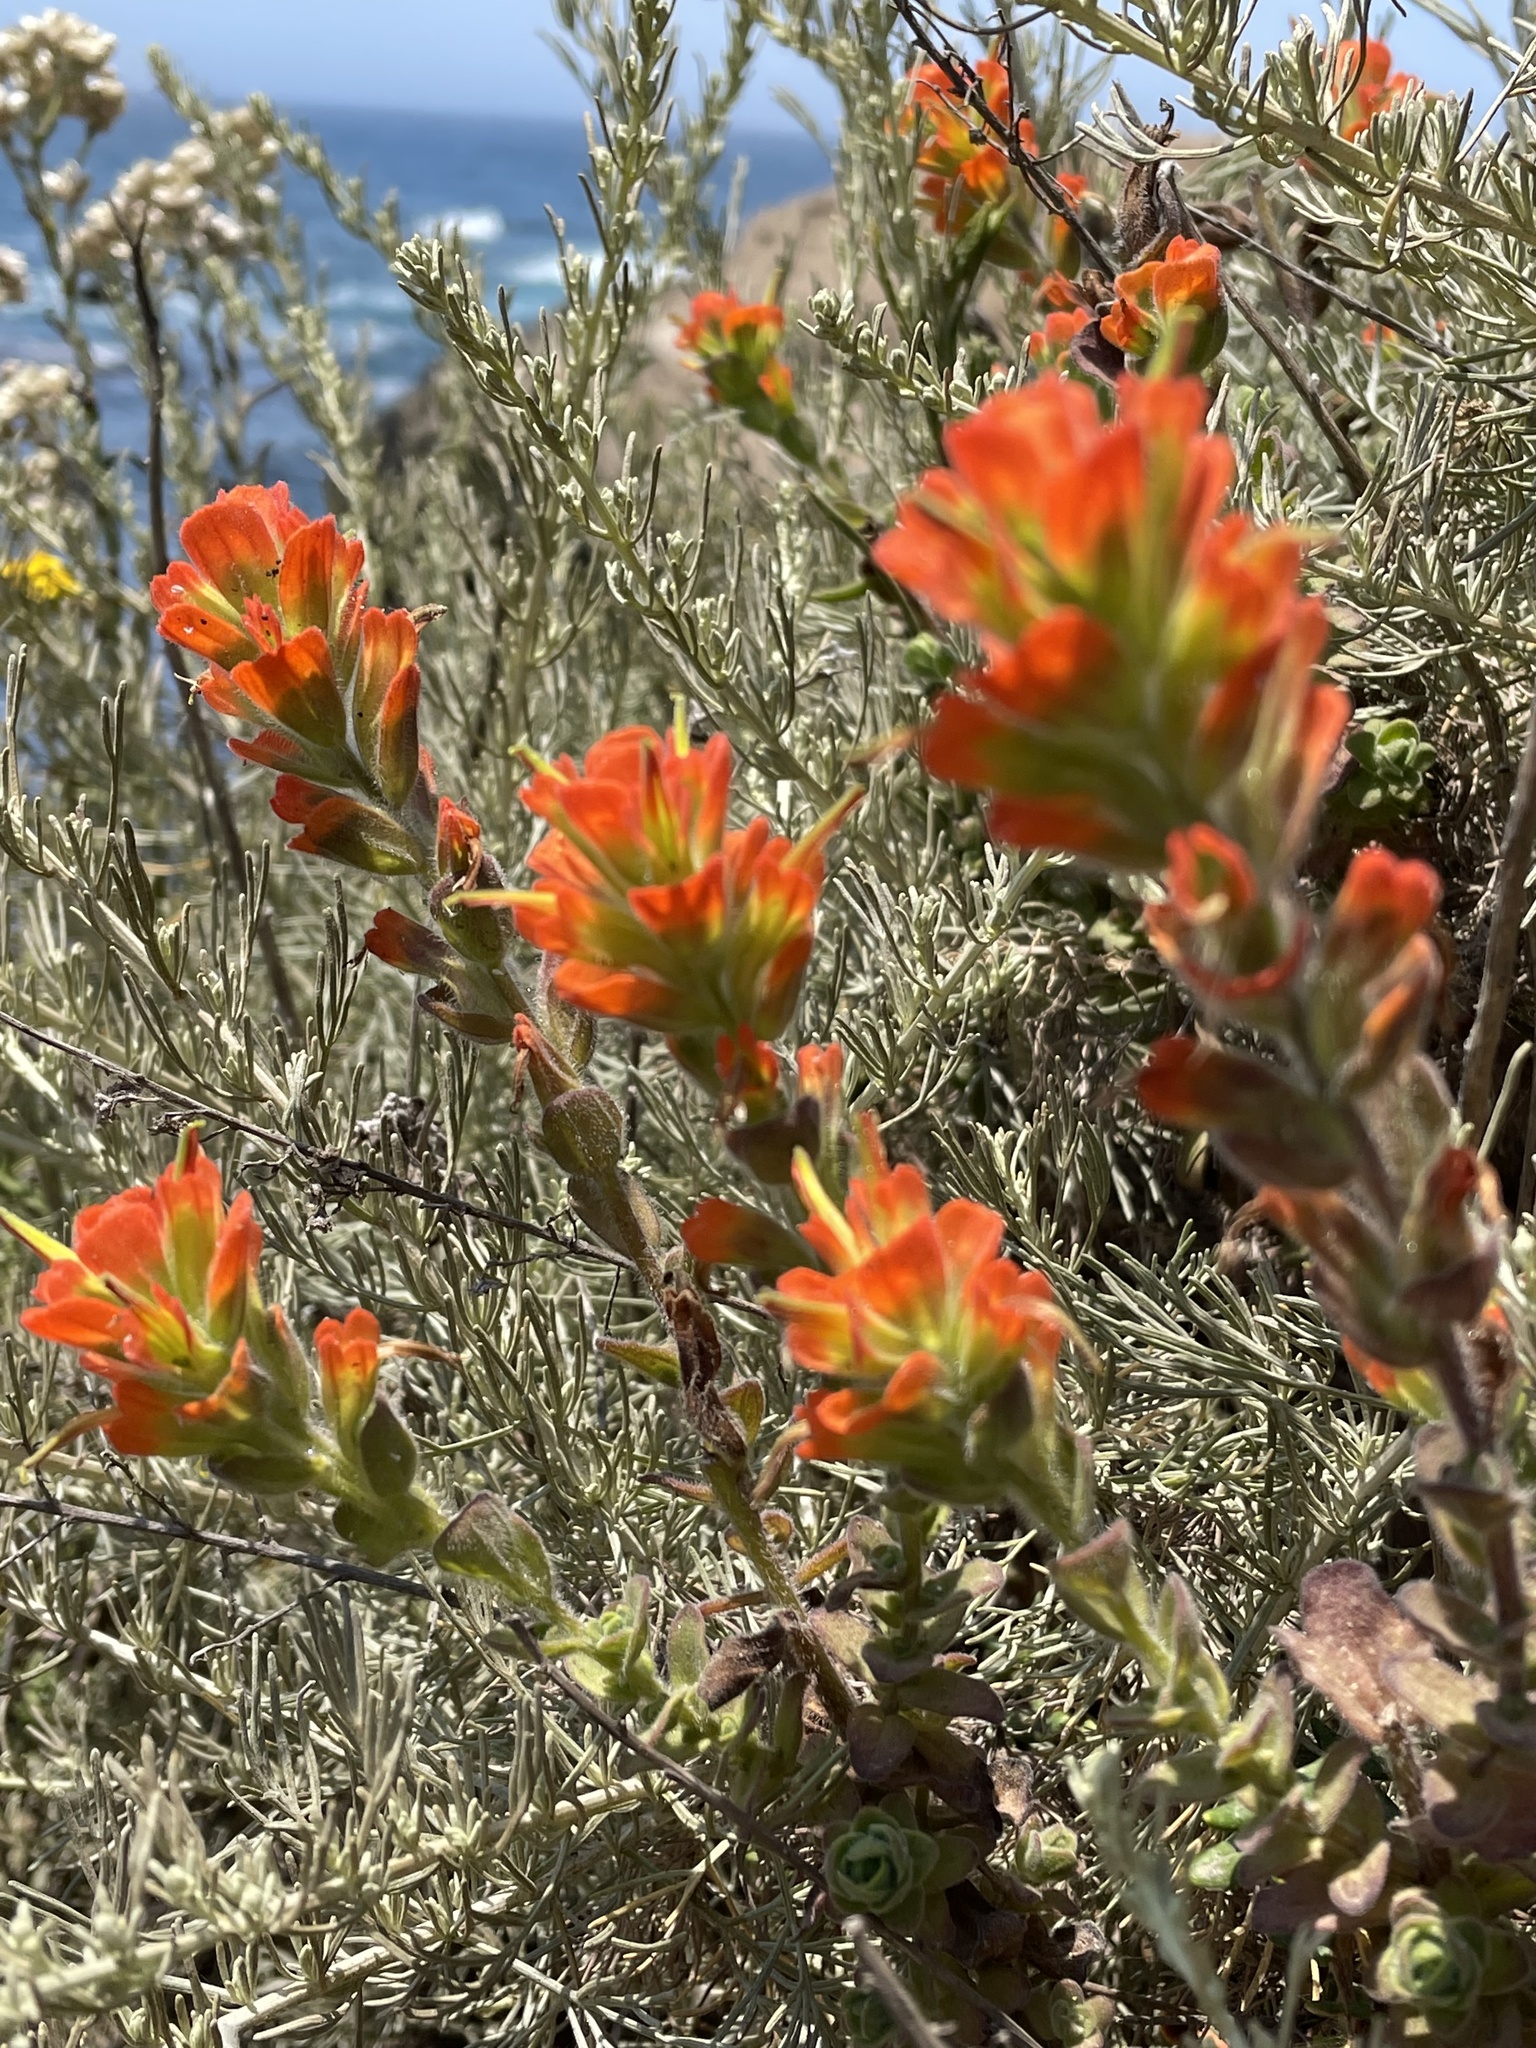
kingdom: Plantae
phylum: Tracheophyta
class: Magnoliopsida
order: Lamiales
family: Orobanchaceae
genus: Castilleja
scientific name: Castilleja latifolia
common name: Monterey indian paintbrush
